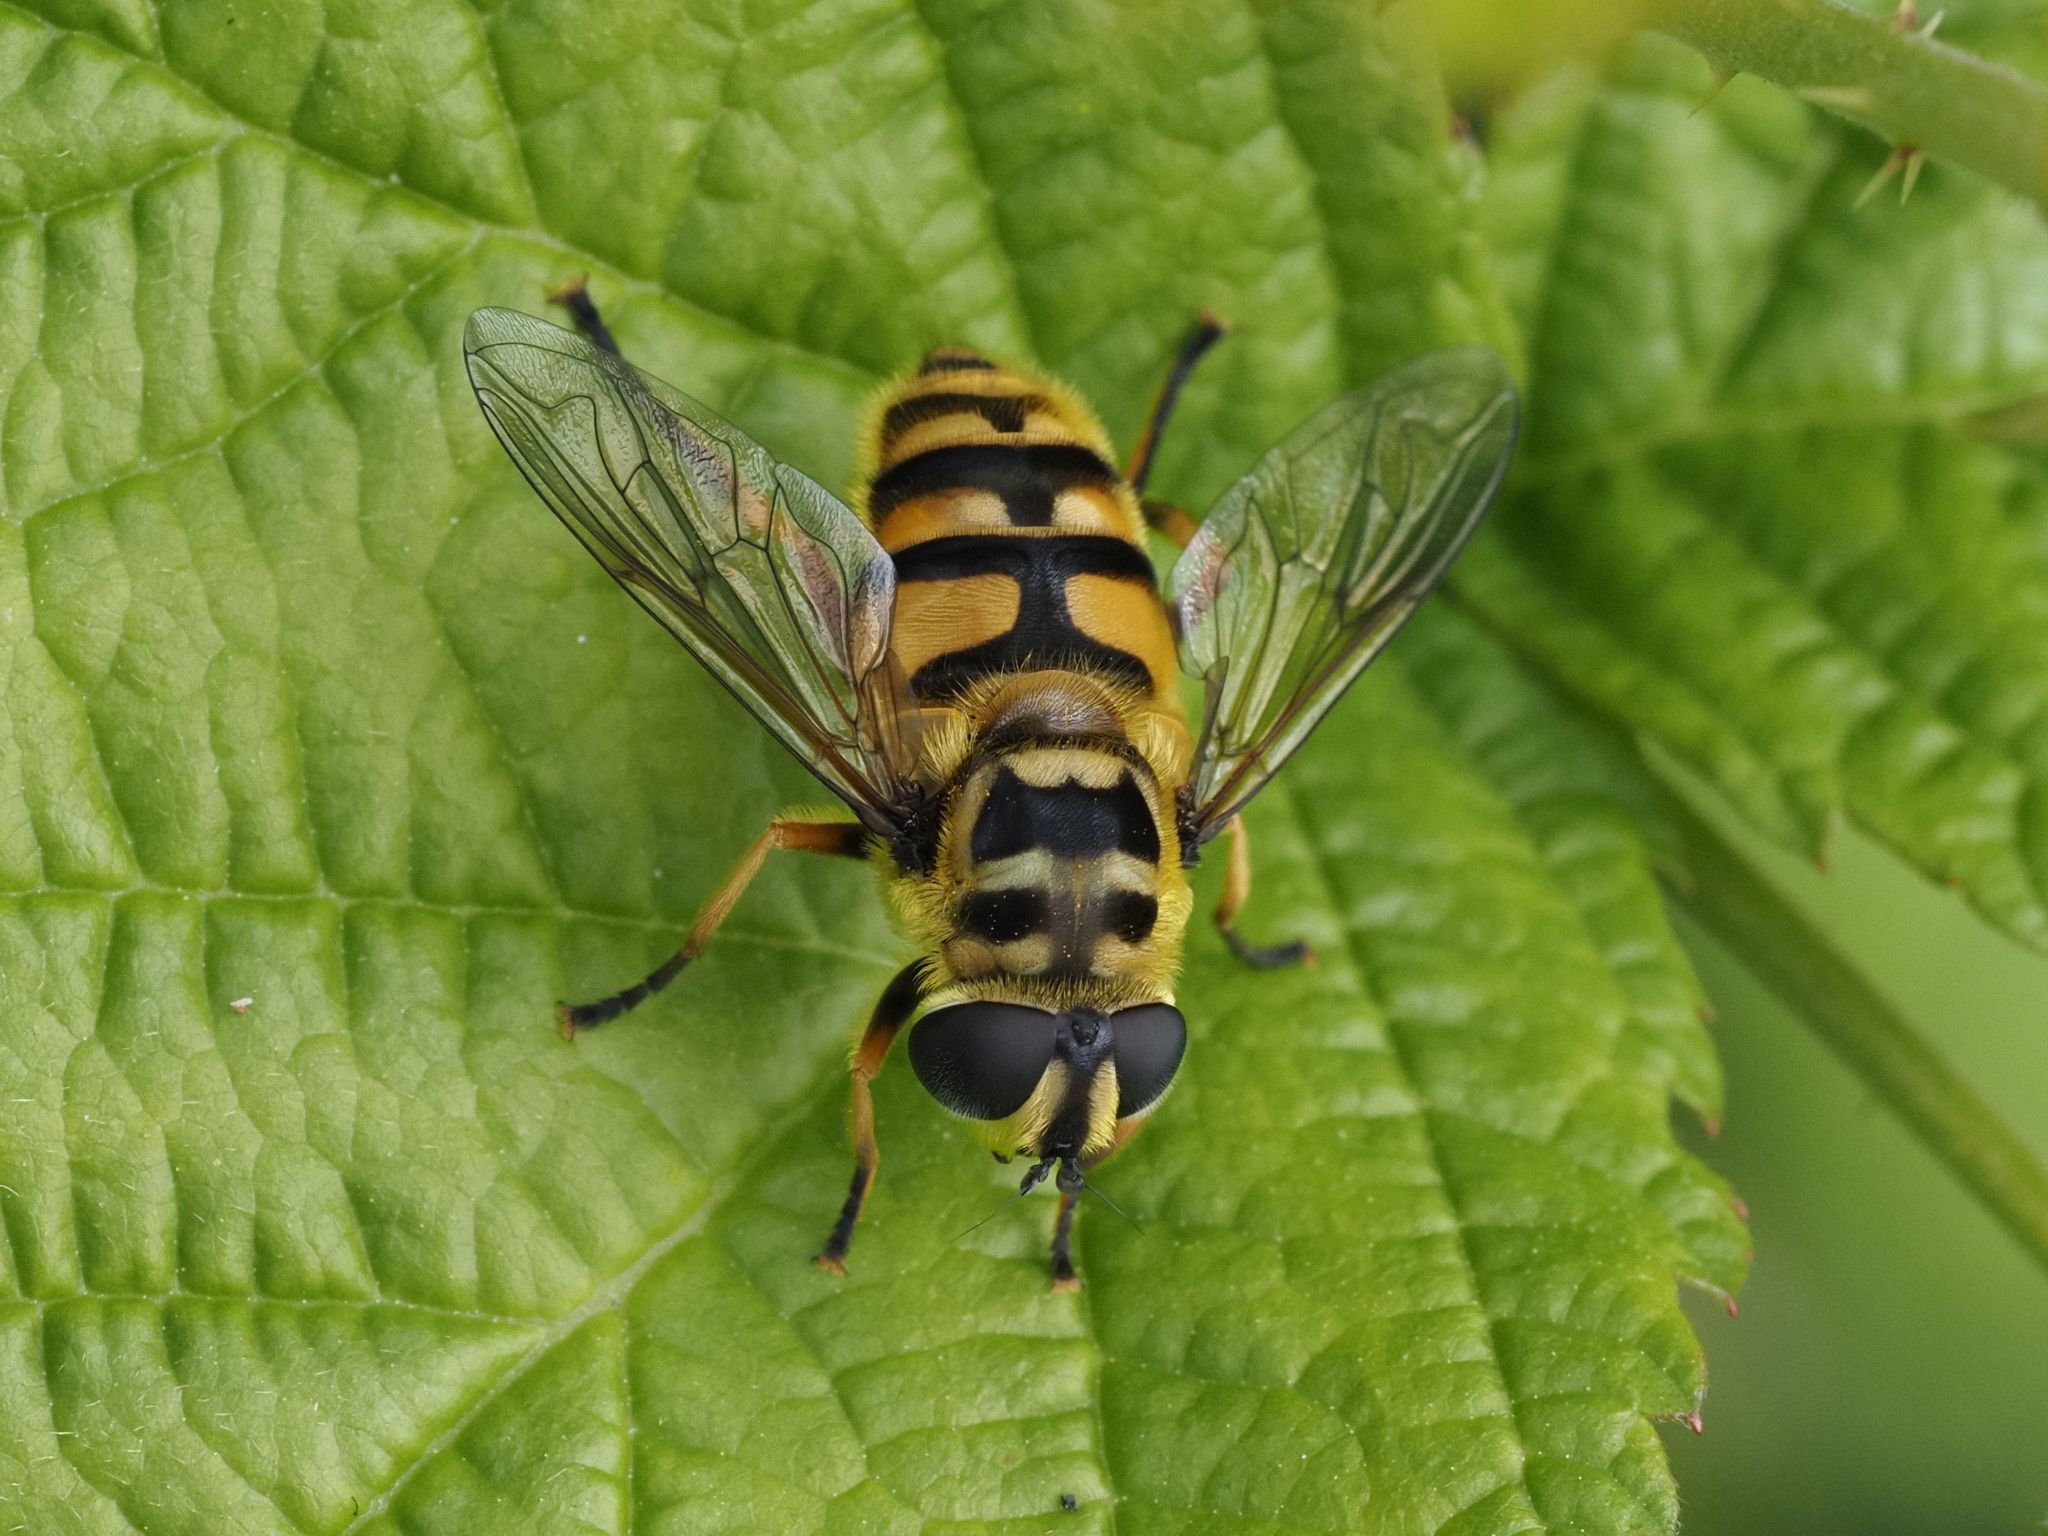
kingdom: Animalia
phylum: Arthropoda
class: Insecta
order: Diptera
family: Syrphidae
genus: Myathropa
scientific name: Myathropa florea
